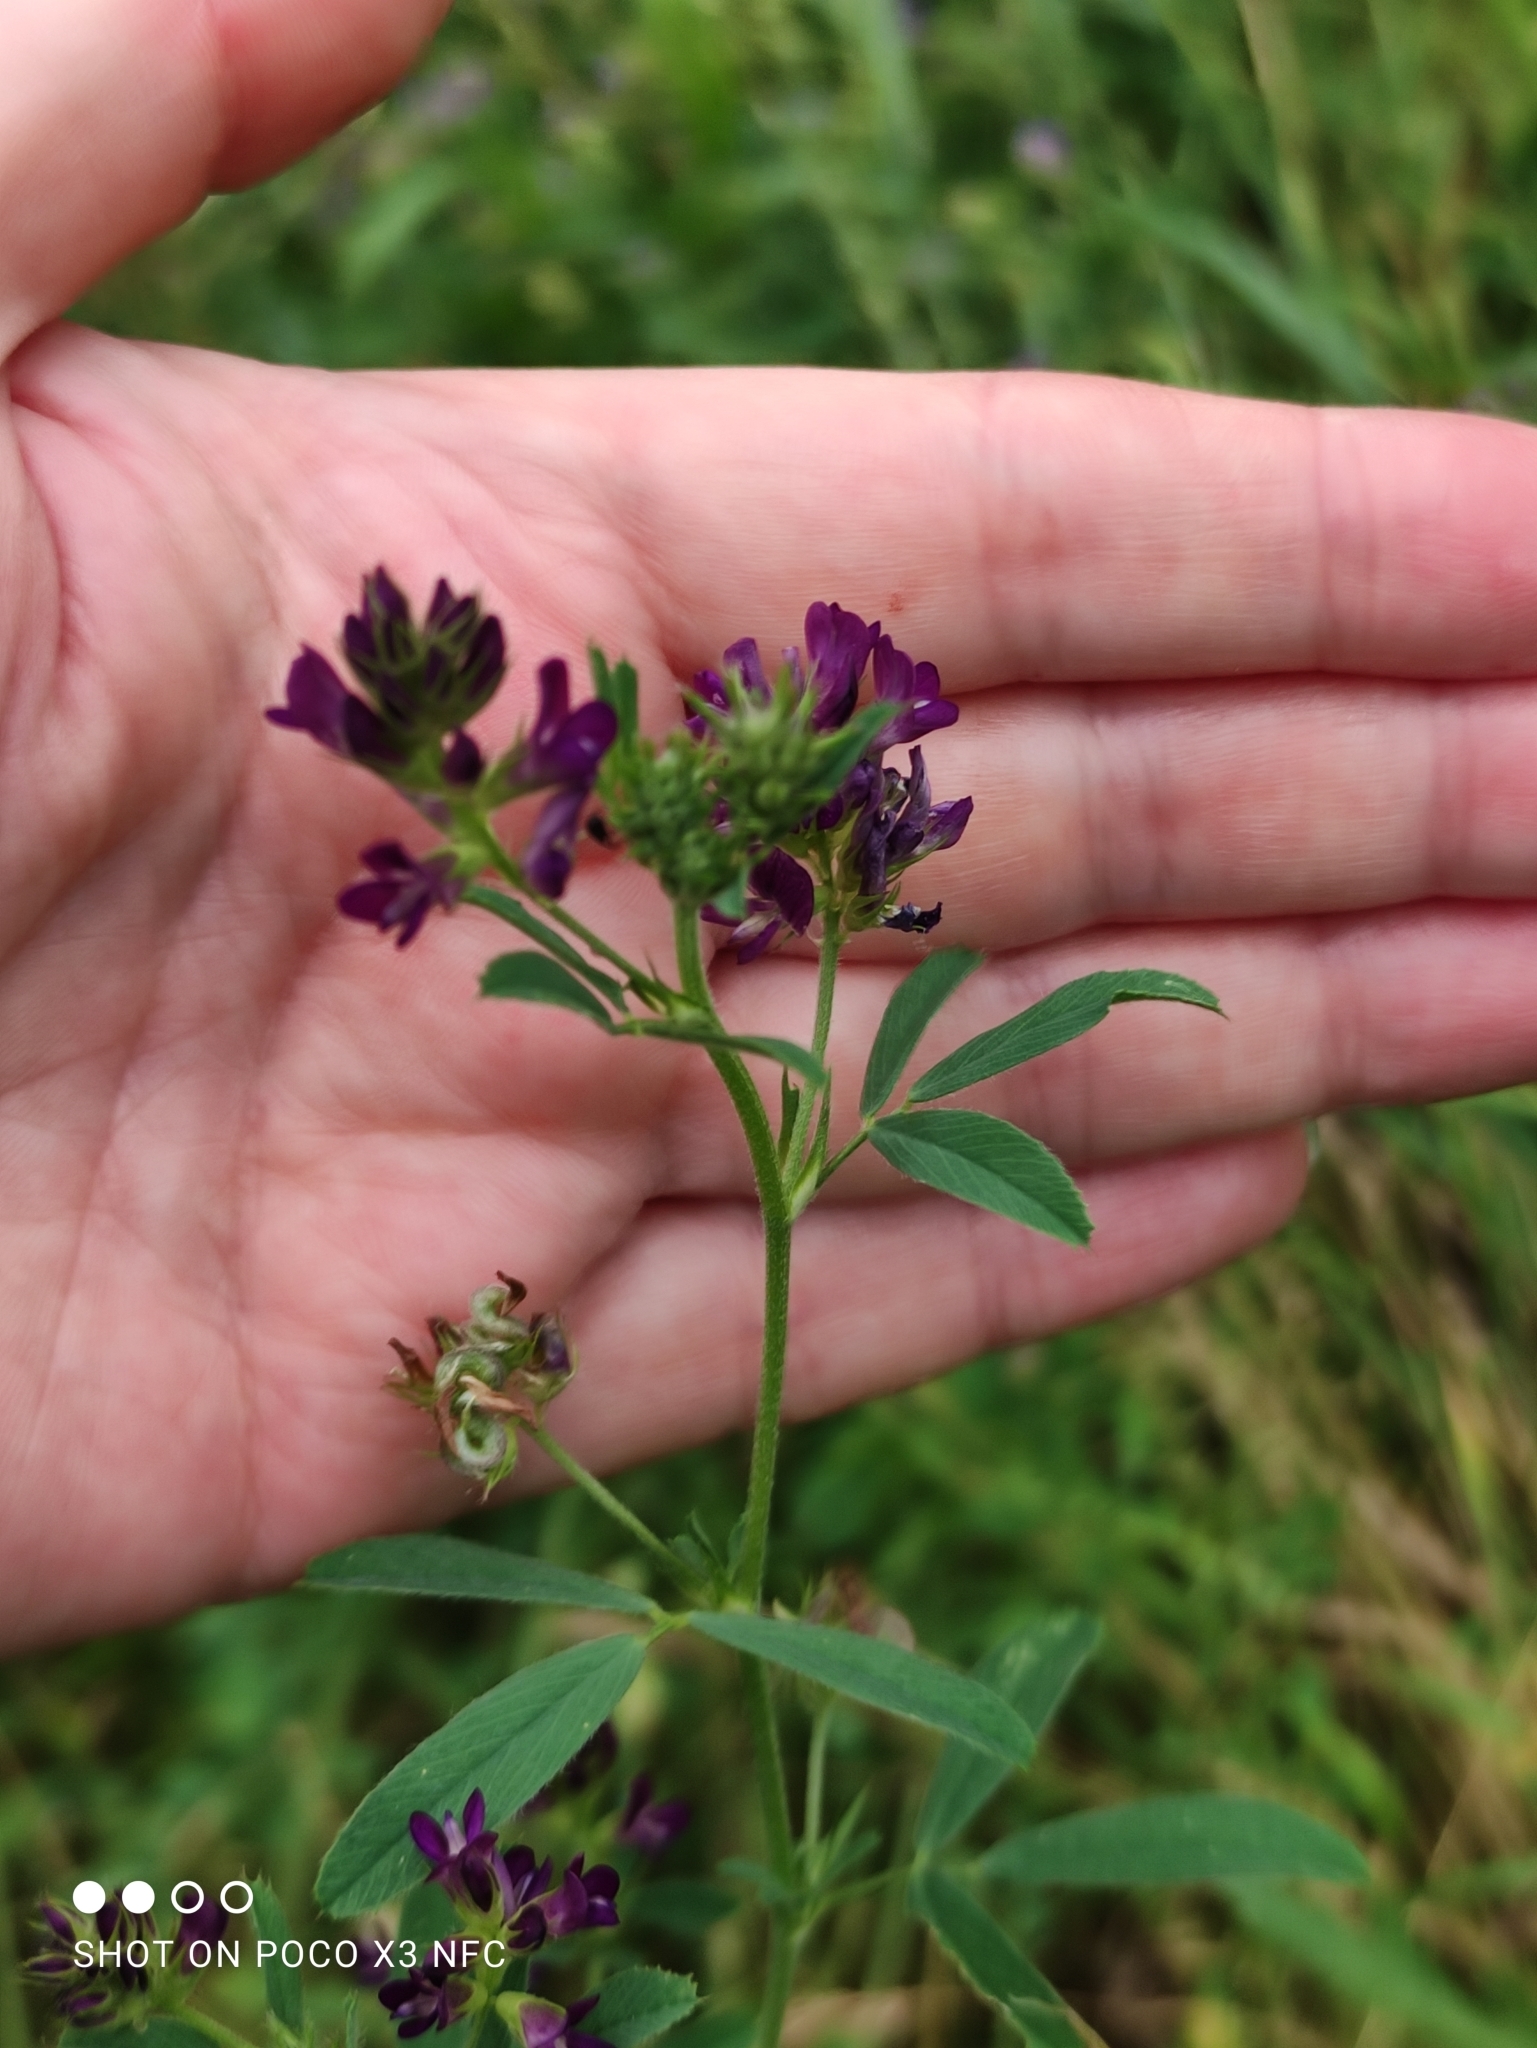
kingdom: Plantae
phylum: Tracheophyta
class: Magnoliopsida
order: Fabales
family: Fabaceae
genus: Medicago
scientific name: Medicago varia
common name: Sand lucerne
